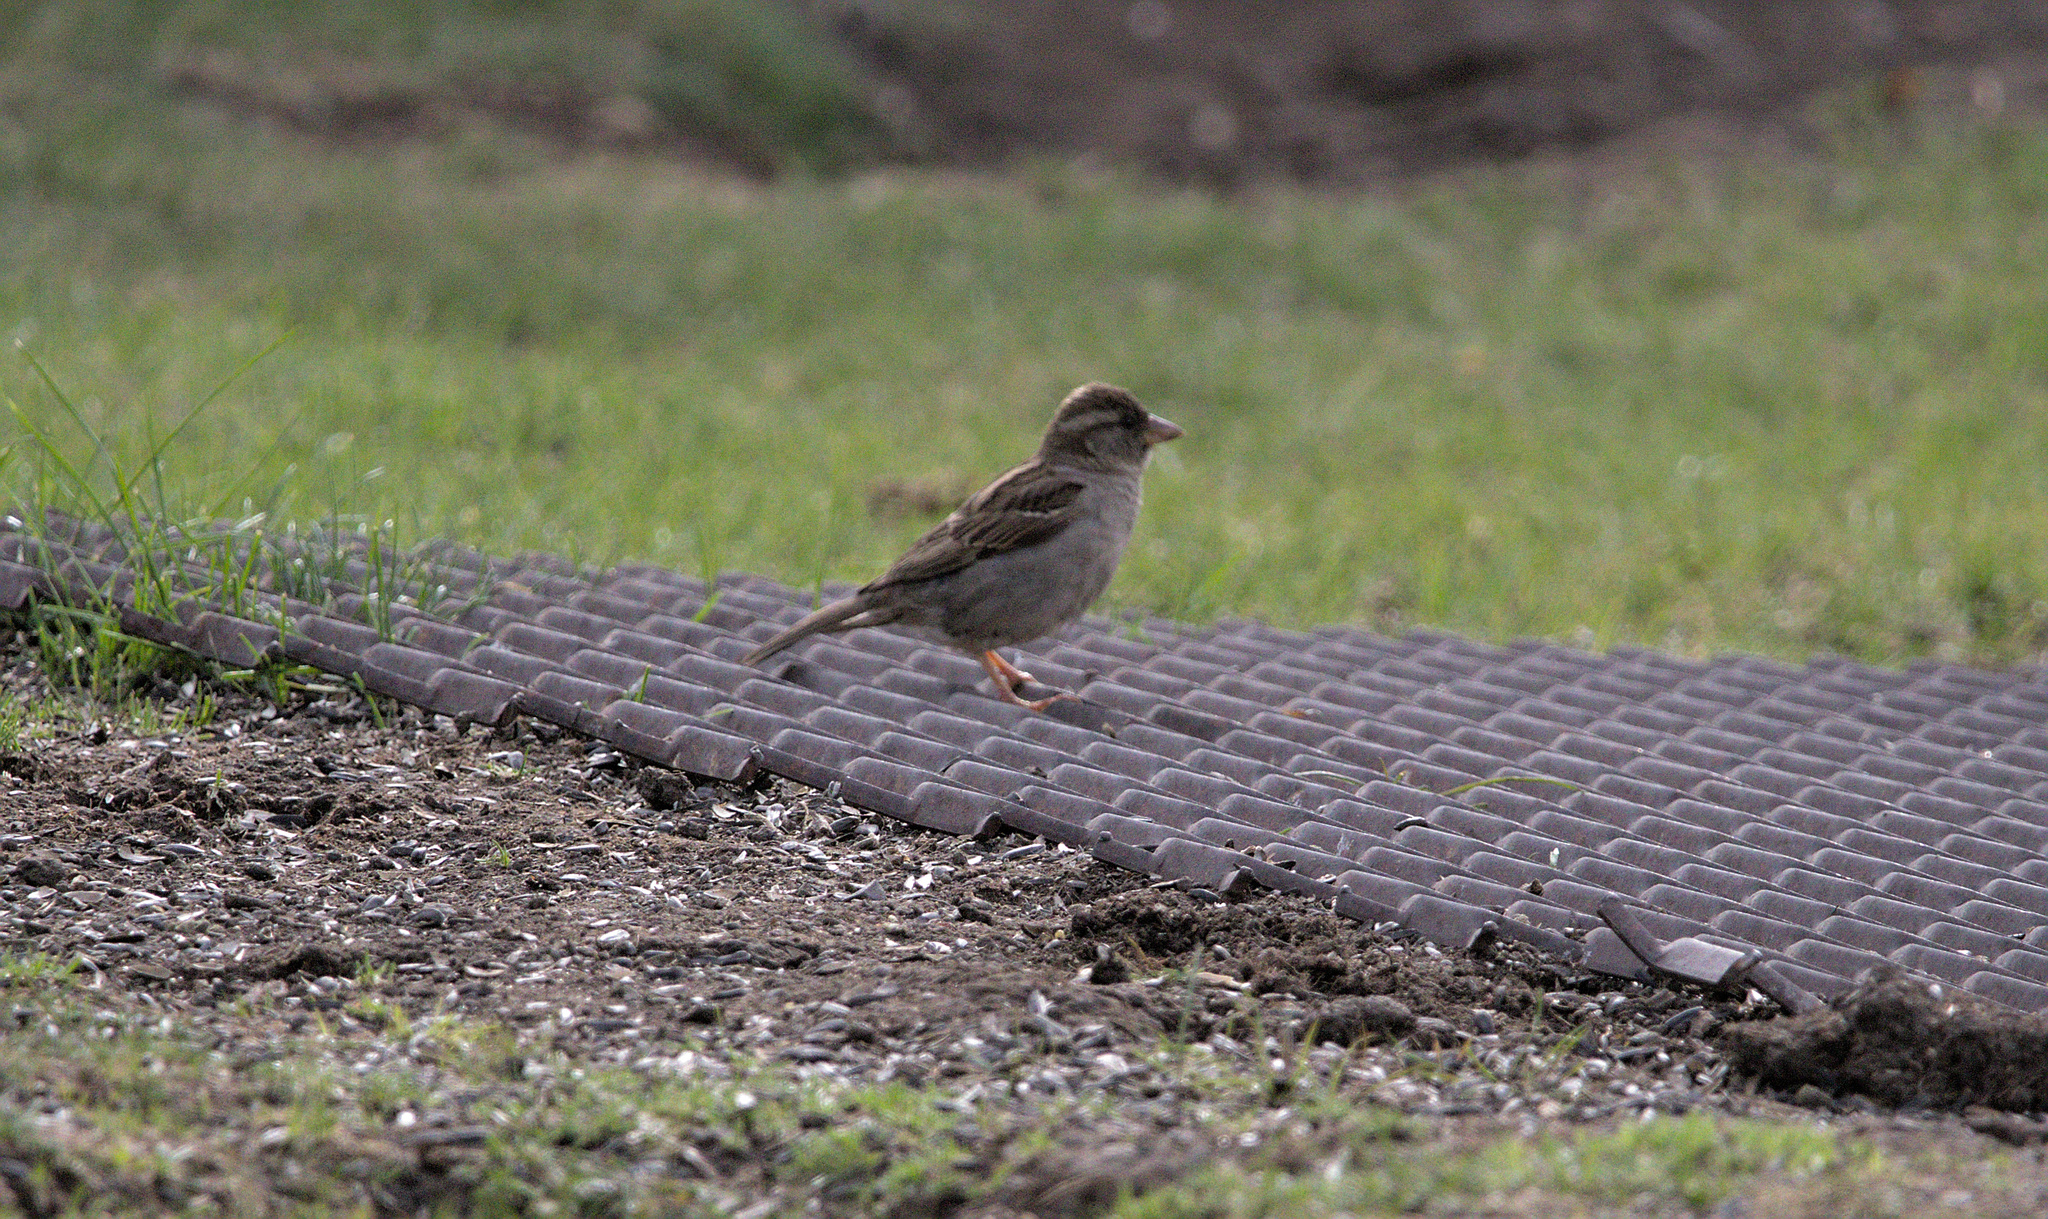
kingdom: Animalia
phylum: Chordata
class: Aves
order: Passeriformes
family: Passeridae
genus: Passer
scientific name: Passer domesticus
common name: House sparrow
